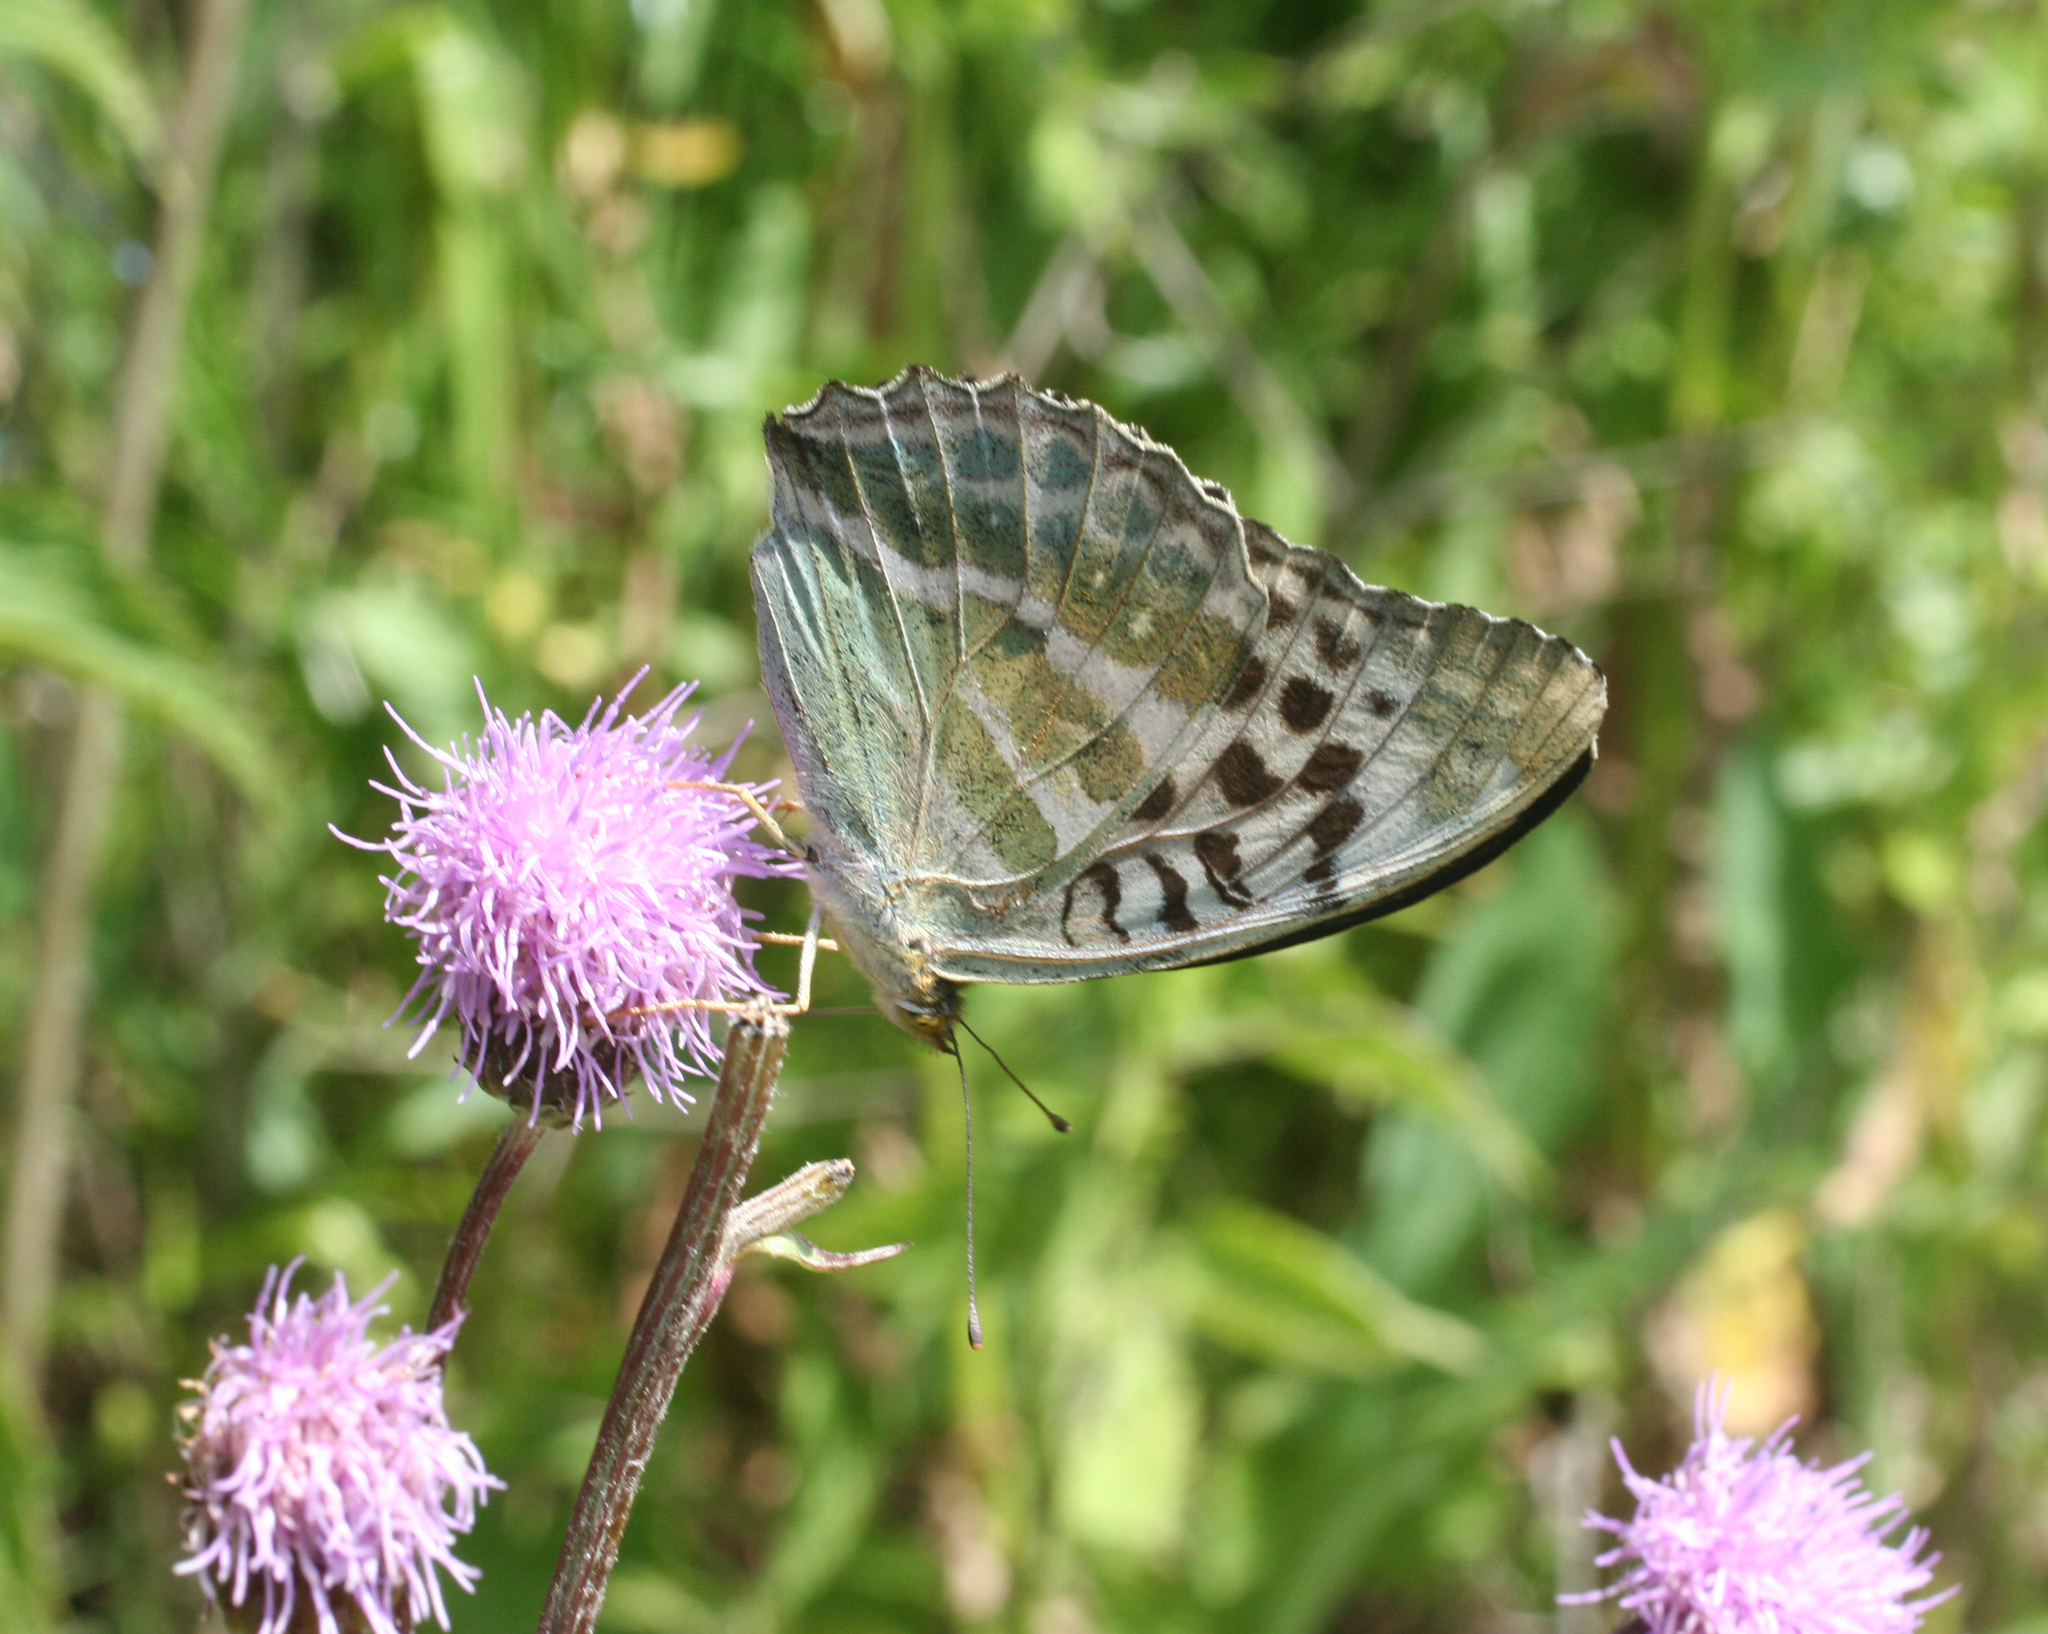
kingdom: Animalia
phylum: Arthropoda
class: Insecta
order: Lepidoptera
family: Nymphalidae
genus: Argynnis
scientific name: Argynnis paphia
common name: Silver-washed fritillary
